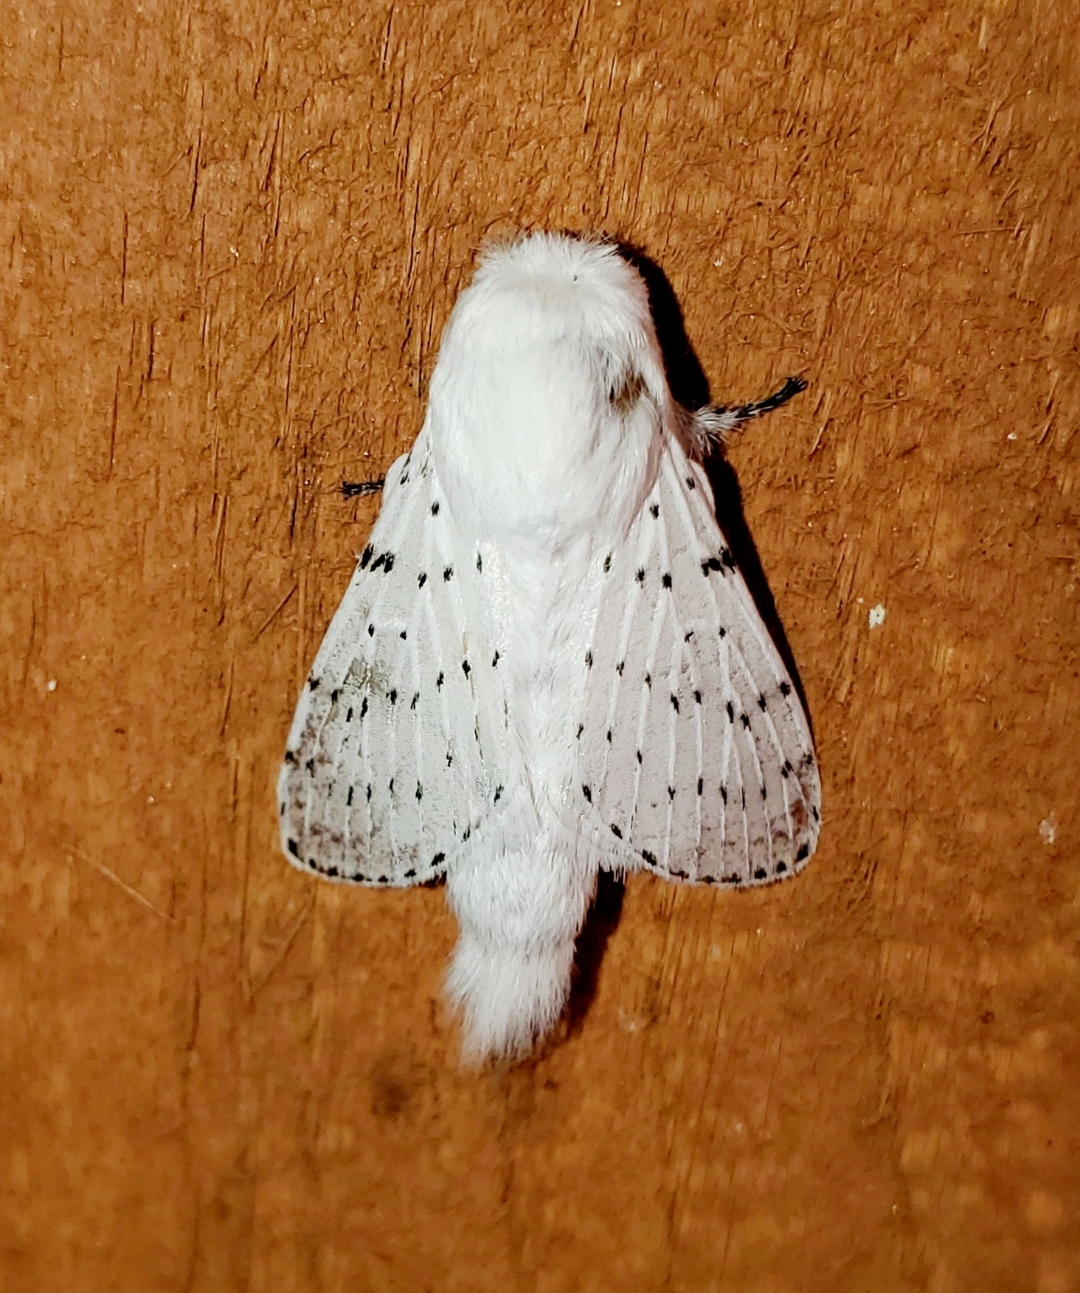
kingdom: Animalia
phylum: Arthropoda
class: Insecta
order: Lepidoptera
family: Lasiocampidae
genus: Artace
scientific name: Artace cribrarius
